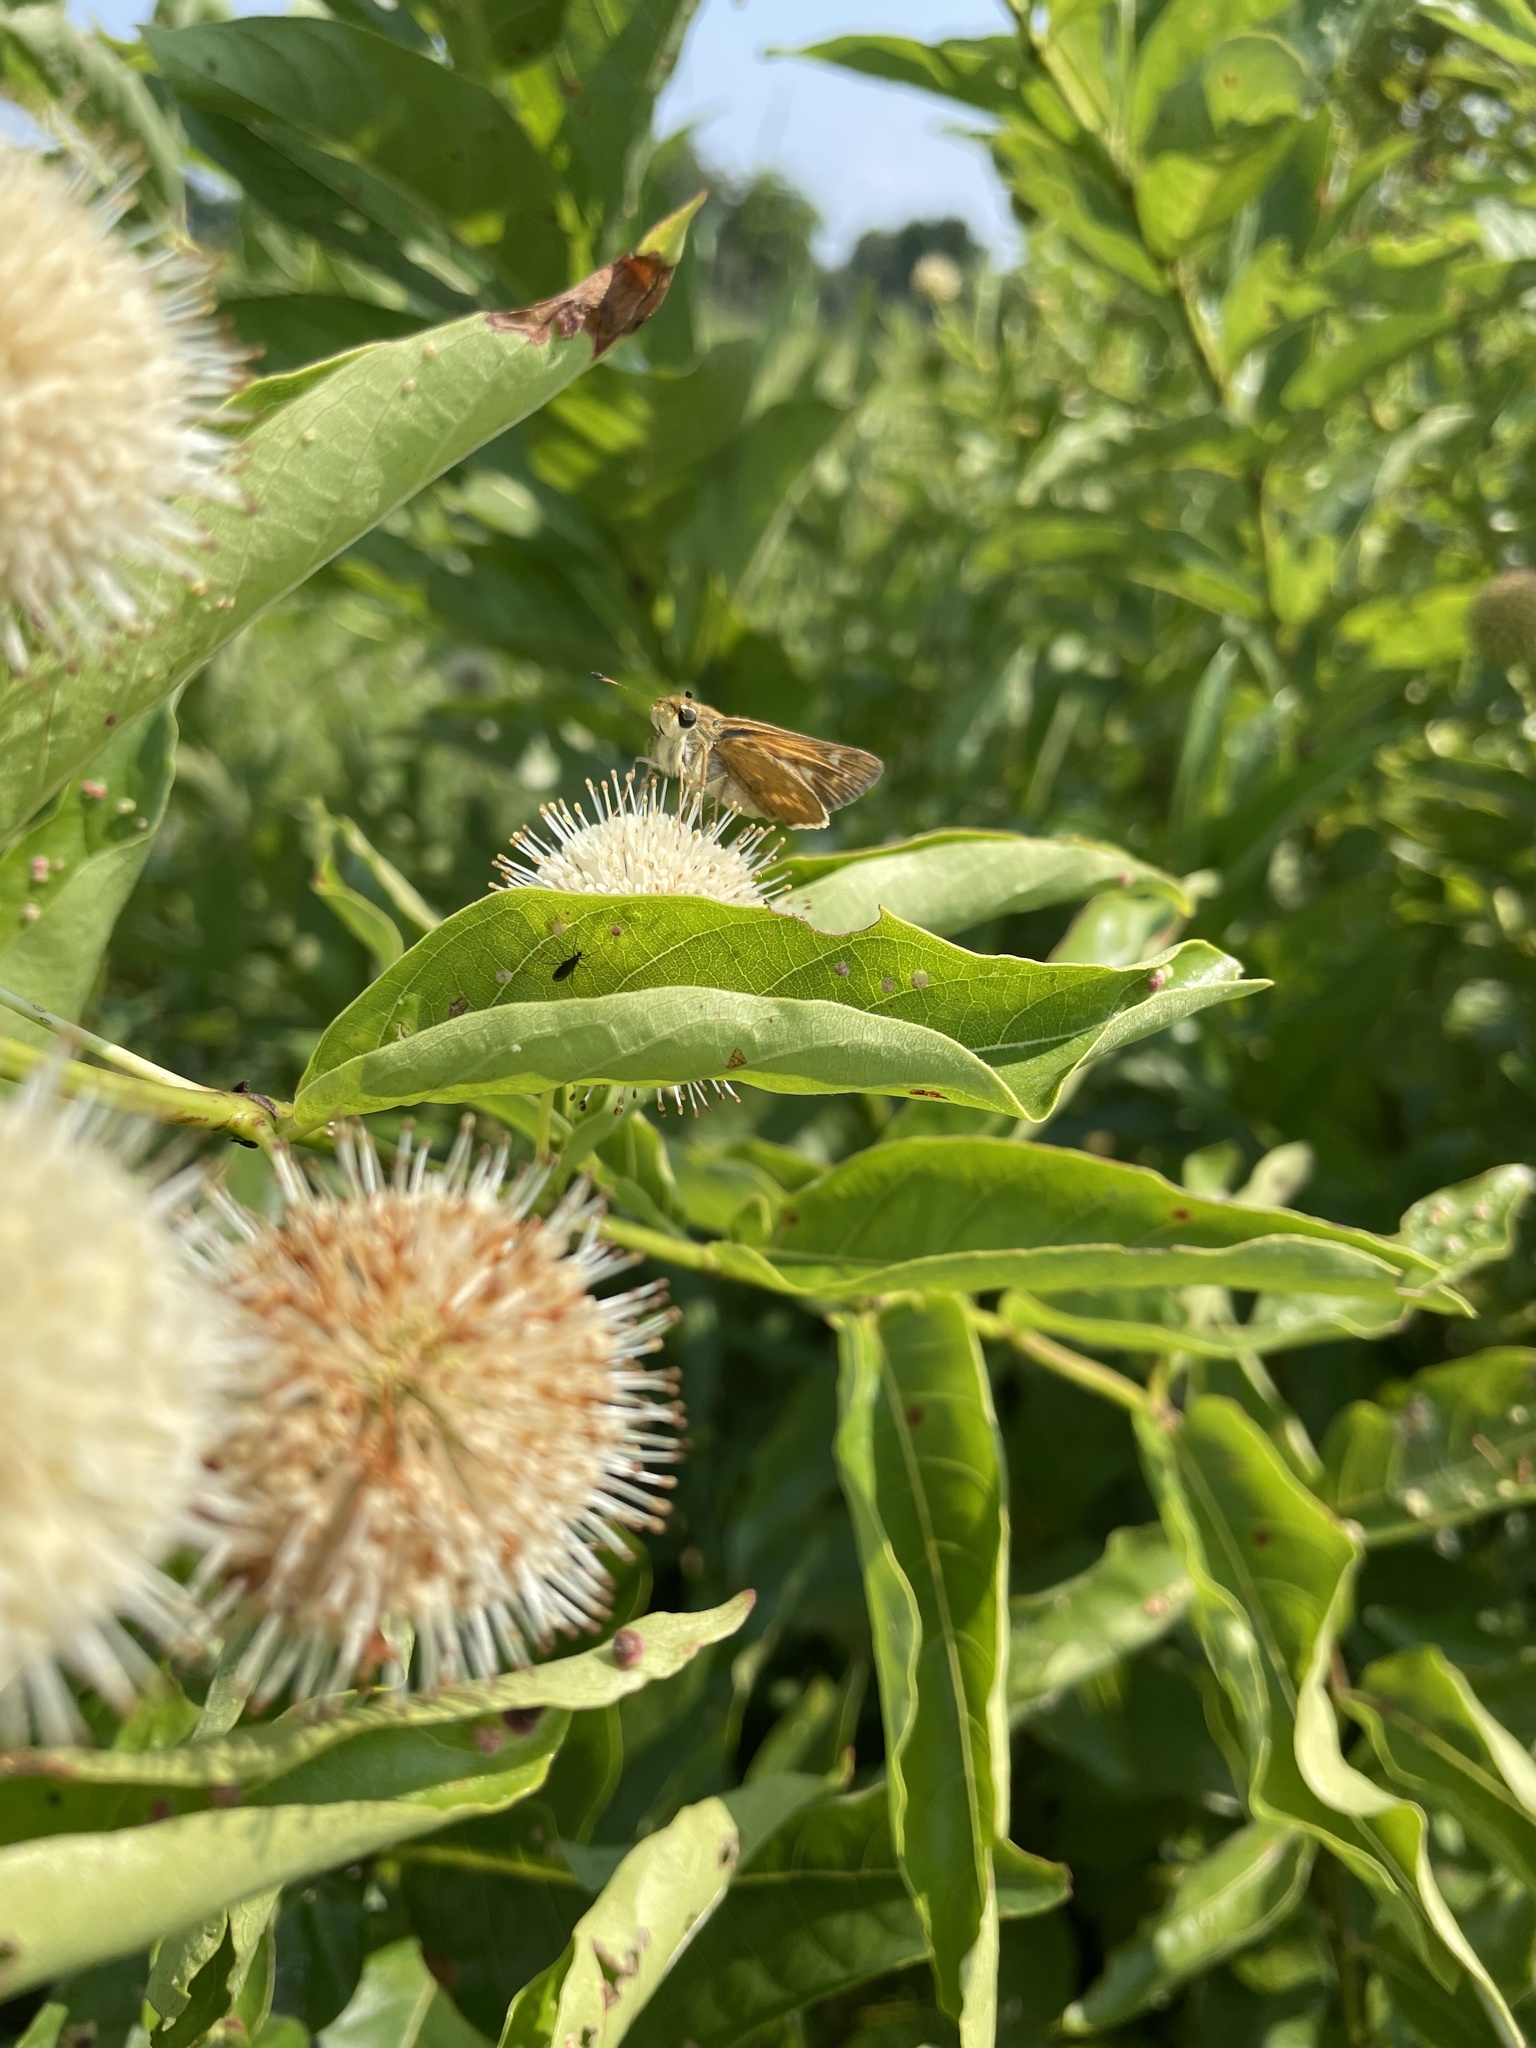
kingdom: Animalia
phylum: Arthropoda
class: Insecta
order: Lepidoptera
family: Hesperiidae
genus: Atalopedes
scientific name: Atalopedes
